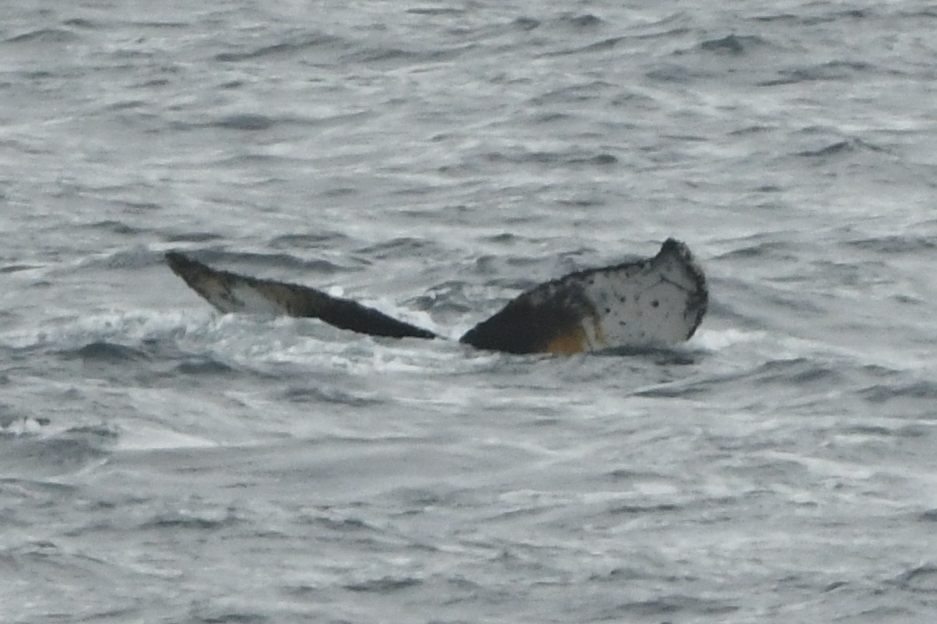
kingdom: Animalia
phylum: Chordata
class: Mammalia
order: Cetacea
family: Balaenopteridae
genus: Megaptera
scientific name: Megaptera novaeangliae
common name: Humpback whale
